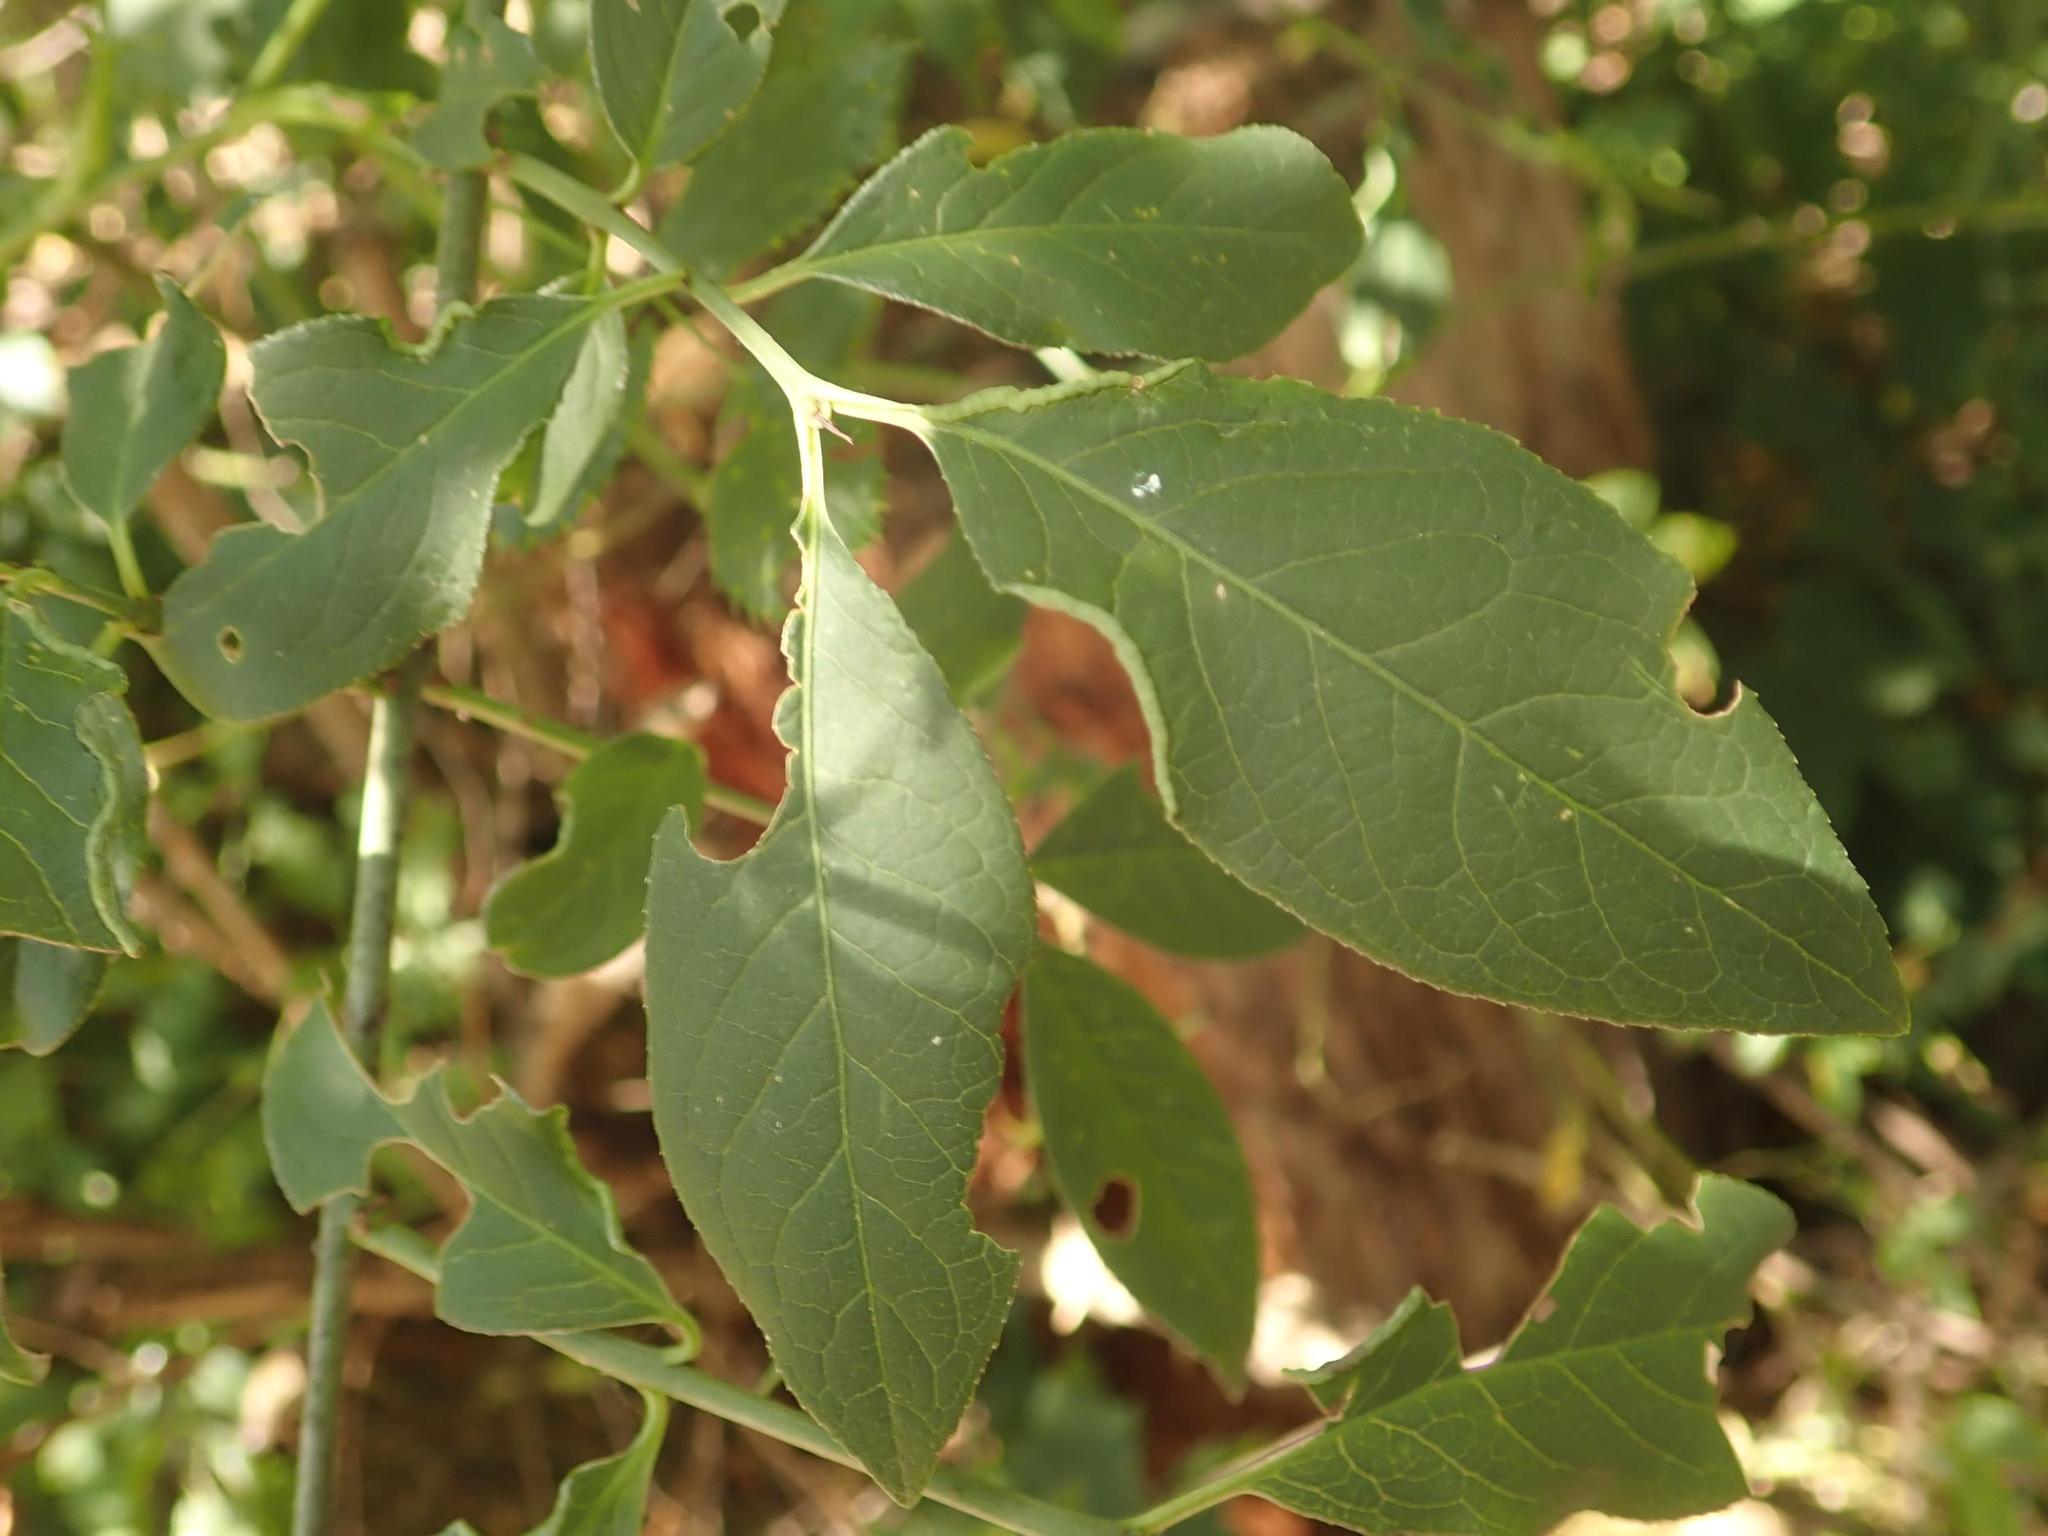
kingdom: Plantae
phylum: Tracheophyta
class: Magnoliopsida
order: Celastrales
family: Celastraceae
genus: Euonymus
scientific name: Euonymus europaeus
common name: Spindle
